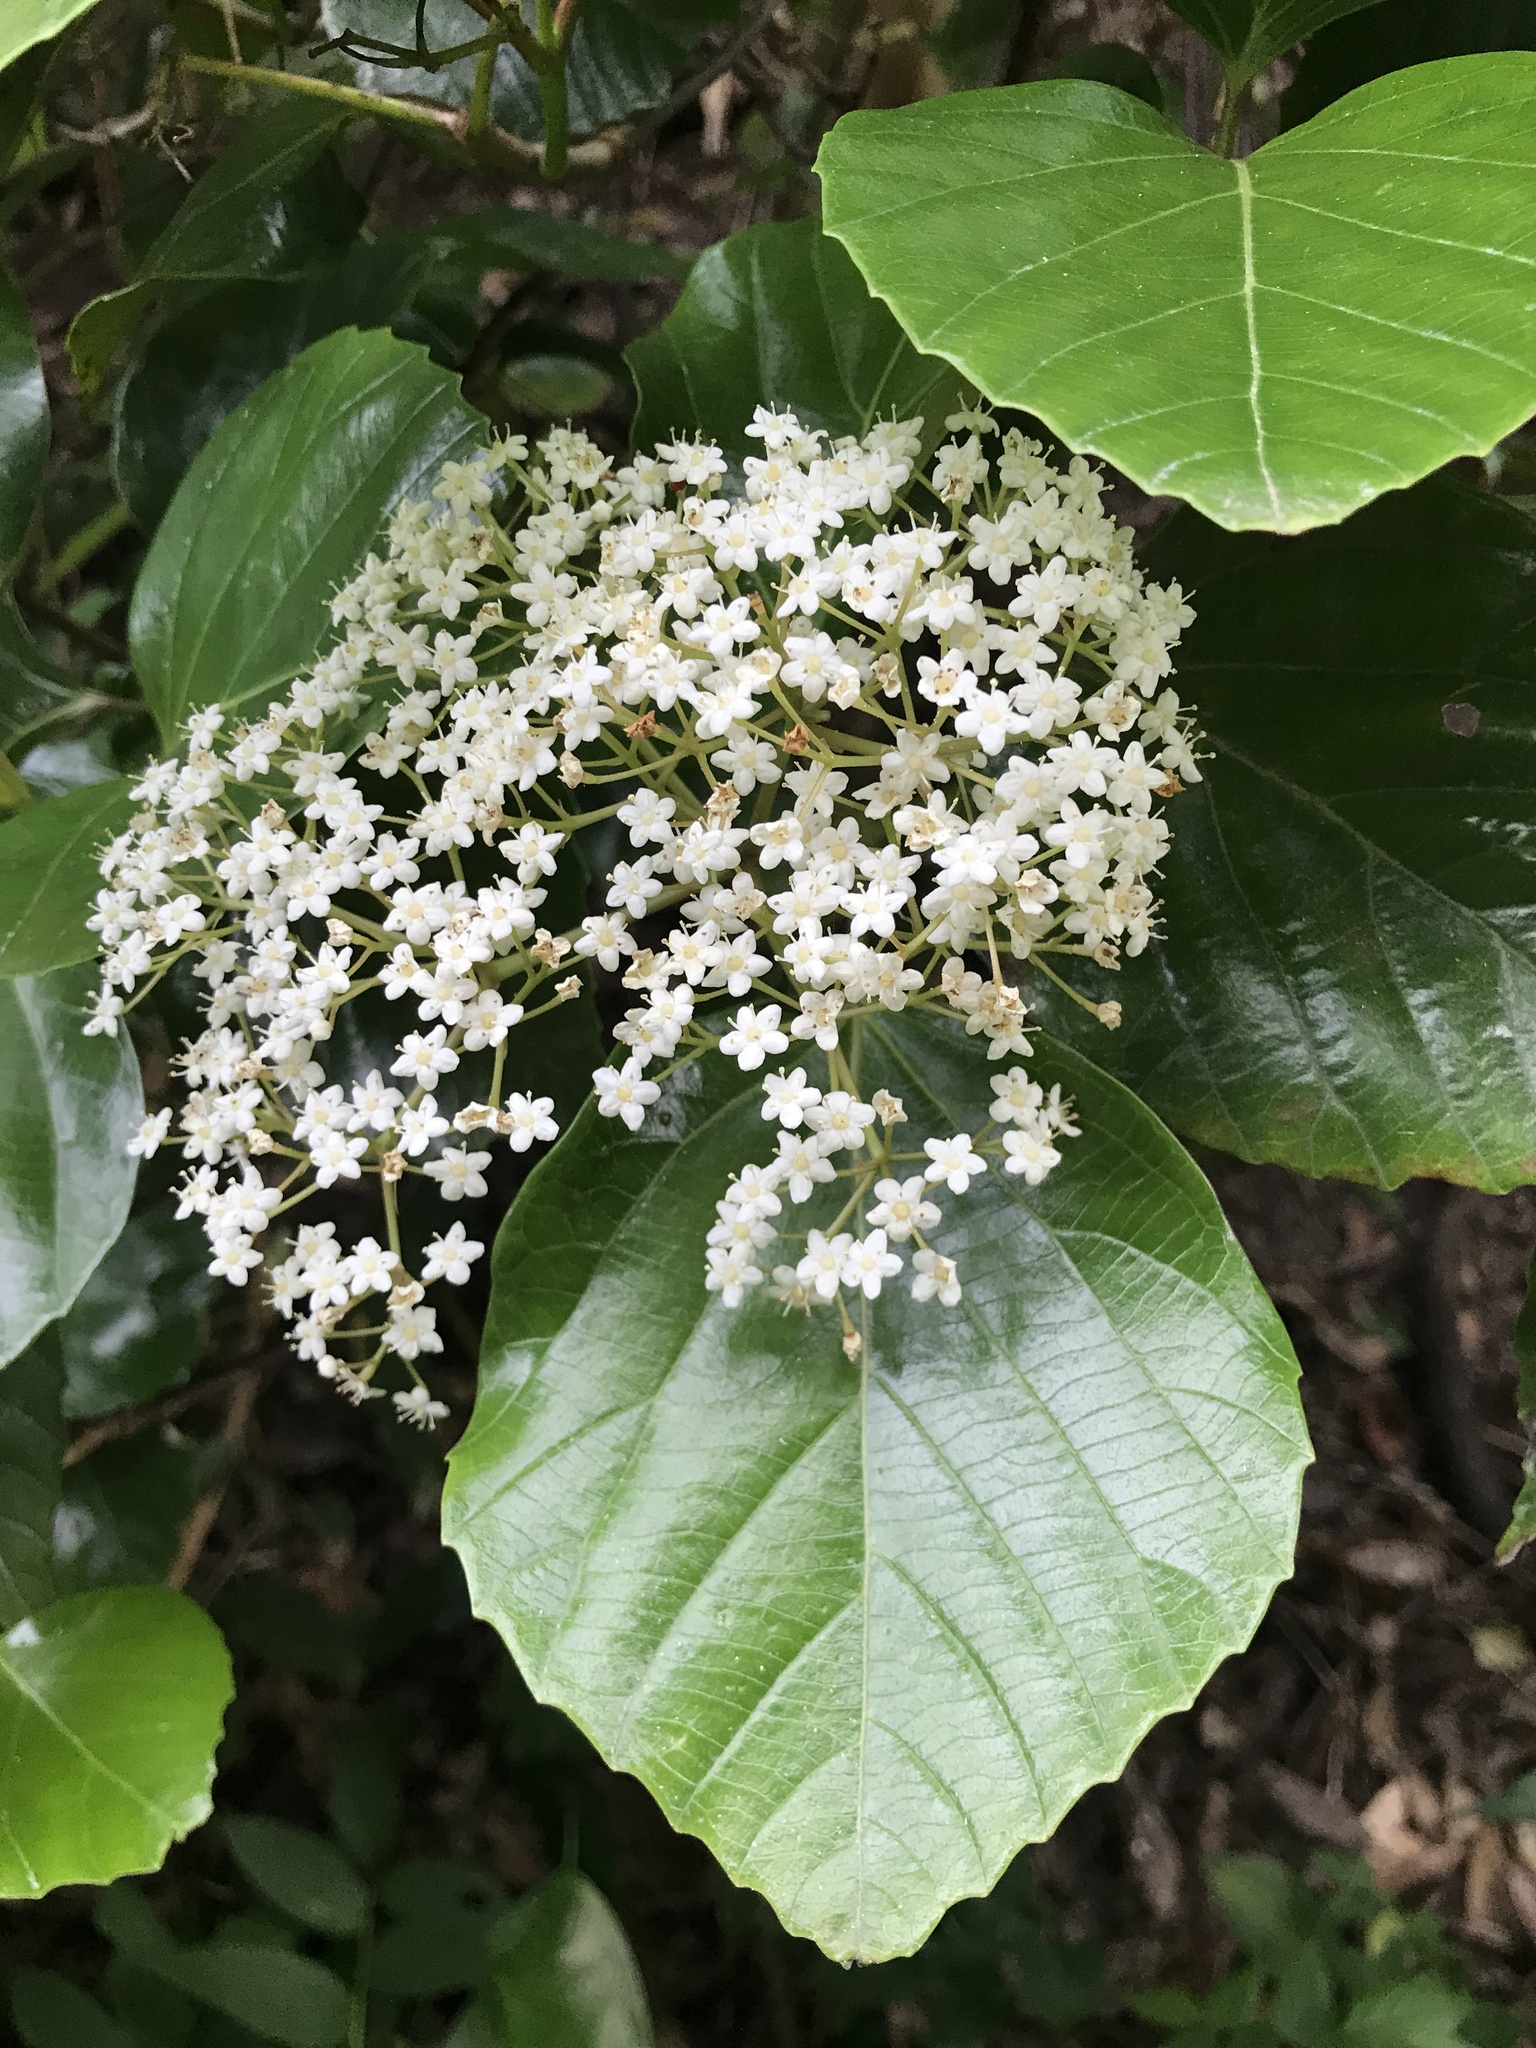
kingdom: Plantae
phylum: Tracheophyta
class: Magnoliopsida
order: Dipsacales
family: Viburnaceae
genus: Viburnum
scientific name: Viburnum japonicum
